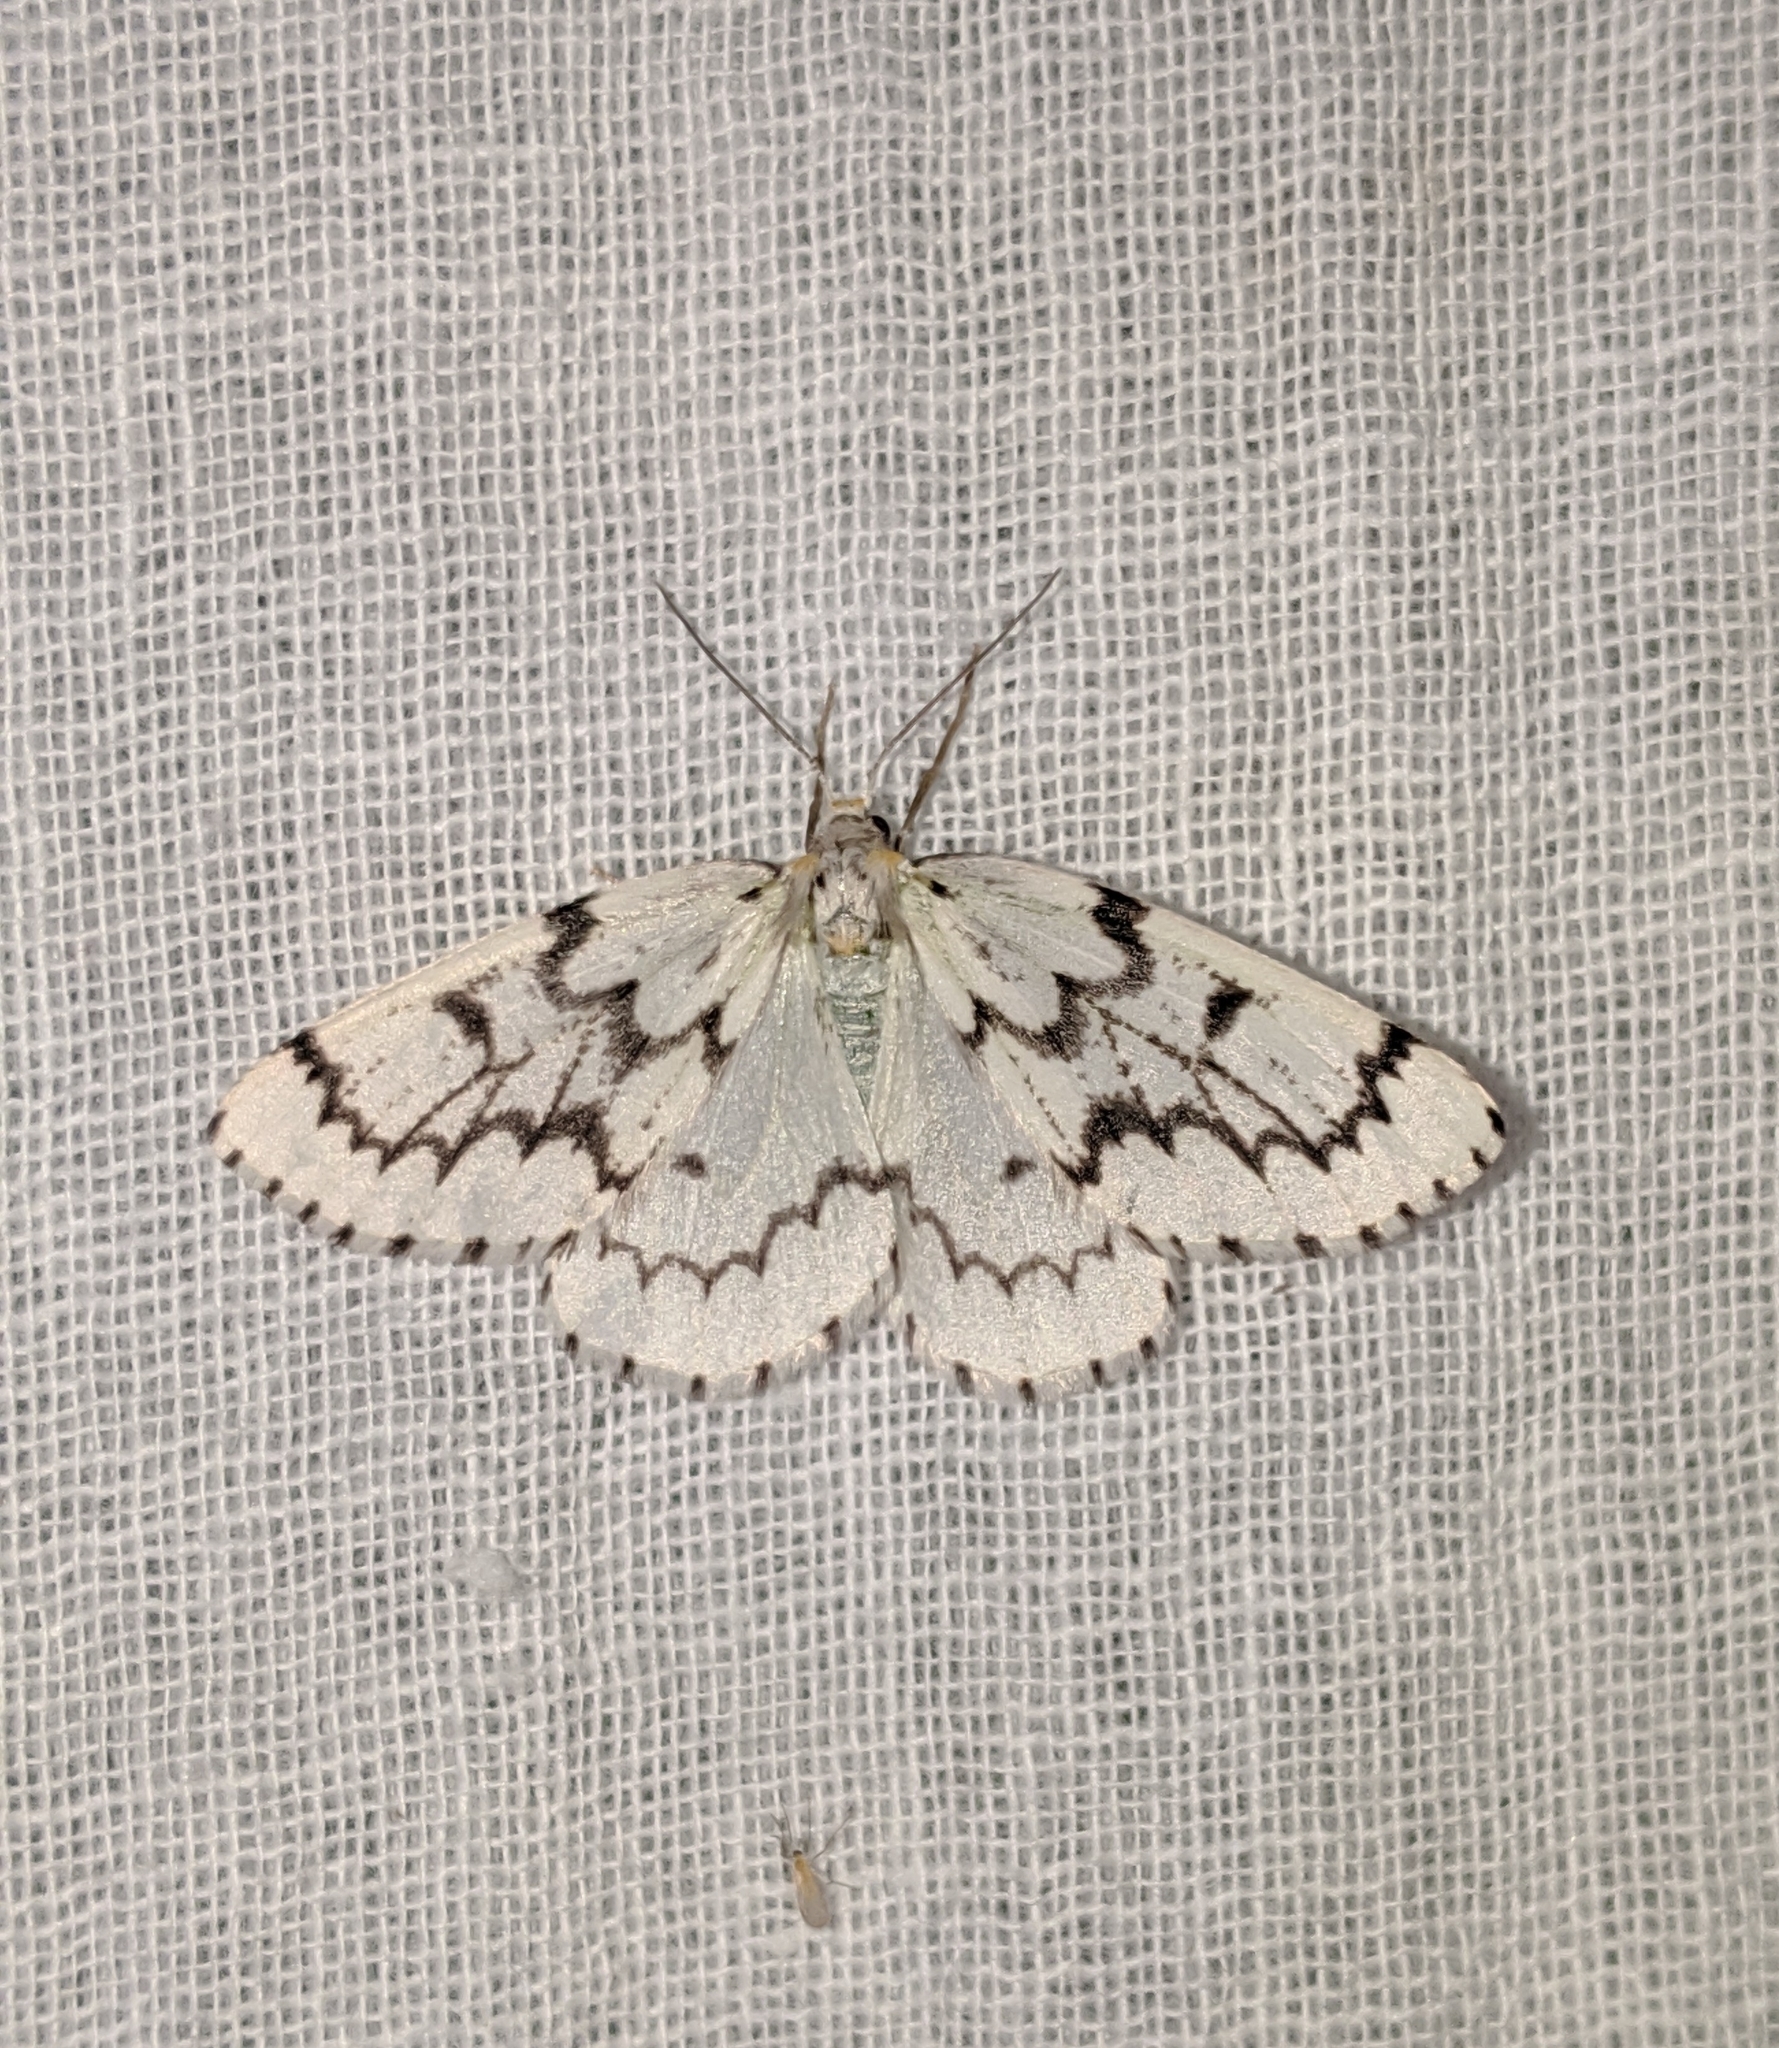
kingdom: Animalia
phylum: Arthropoda
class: Insecta
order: Lepidoptera
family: Geometridae
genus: Nepytia
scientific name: Nepytia phantasmaria
